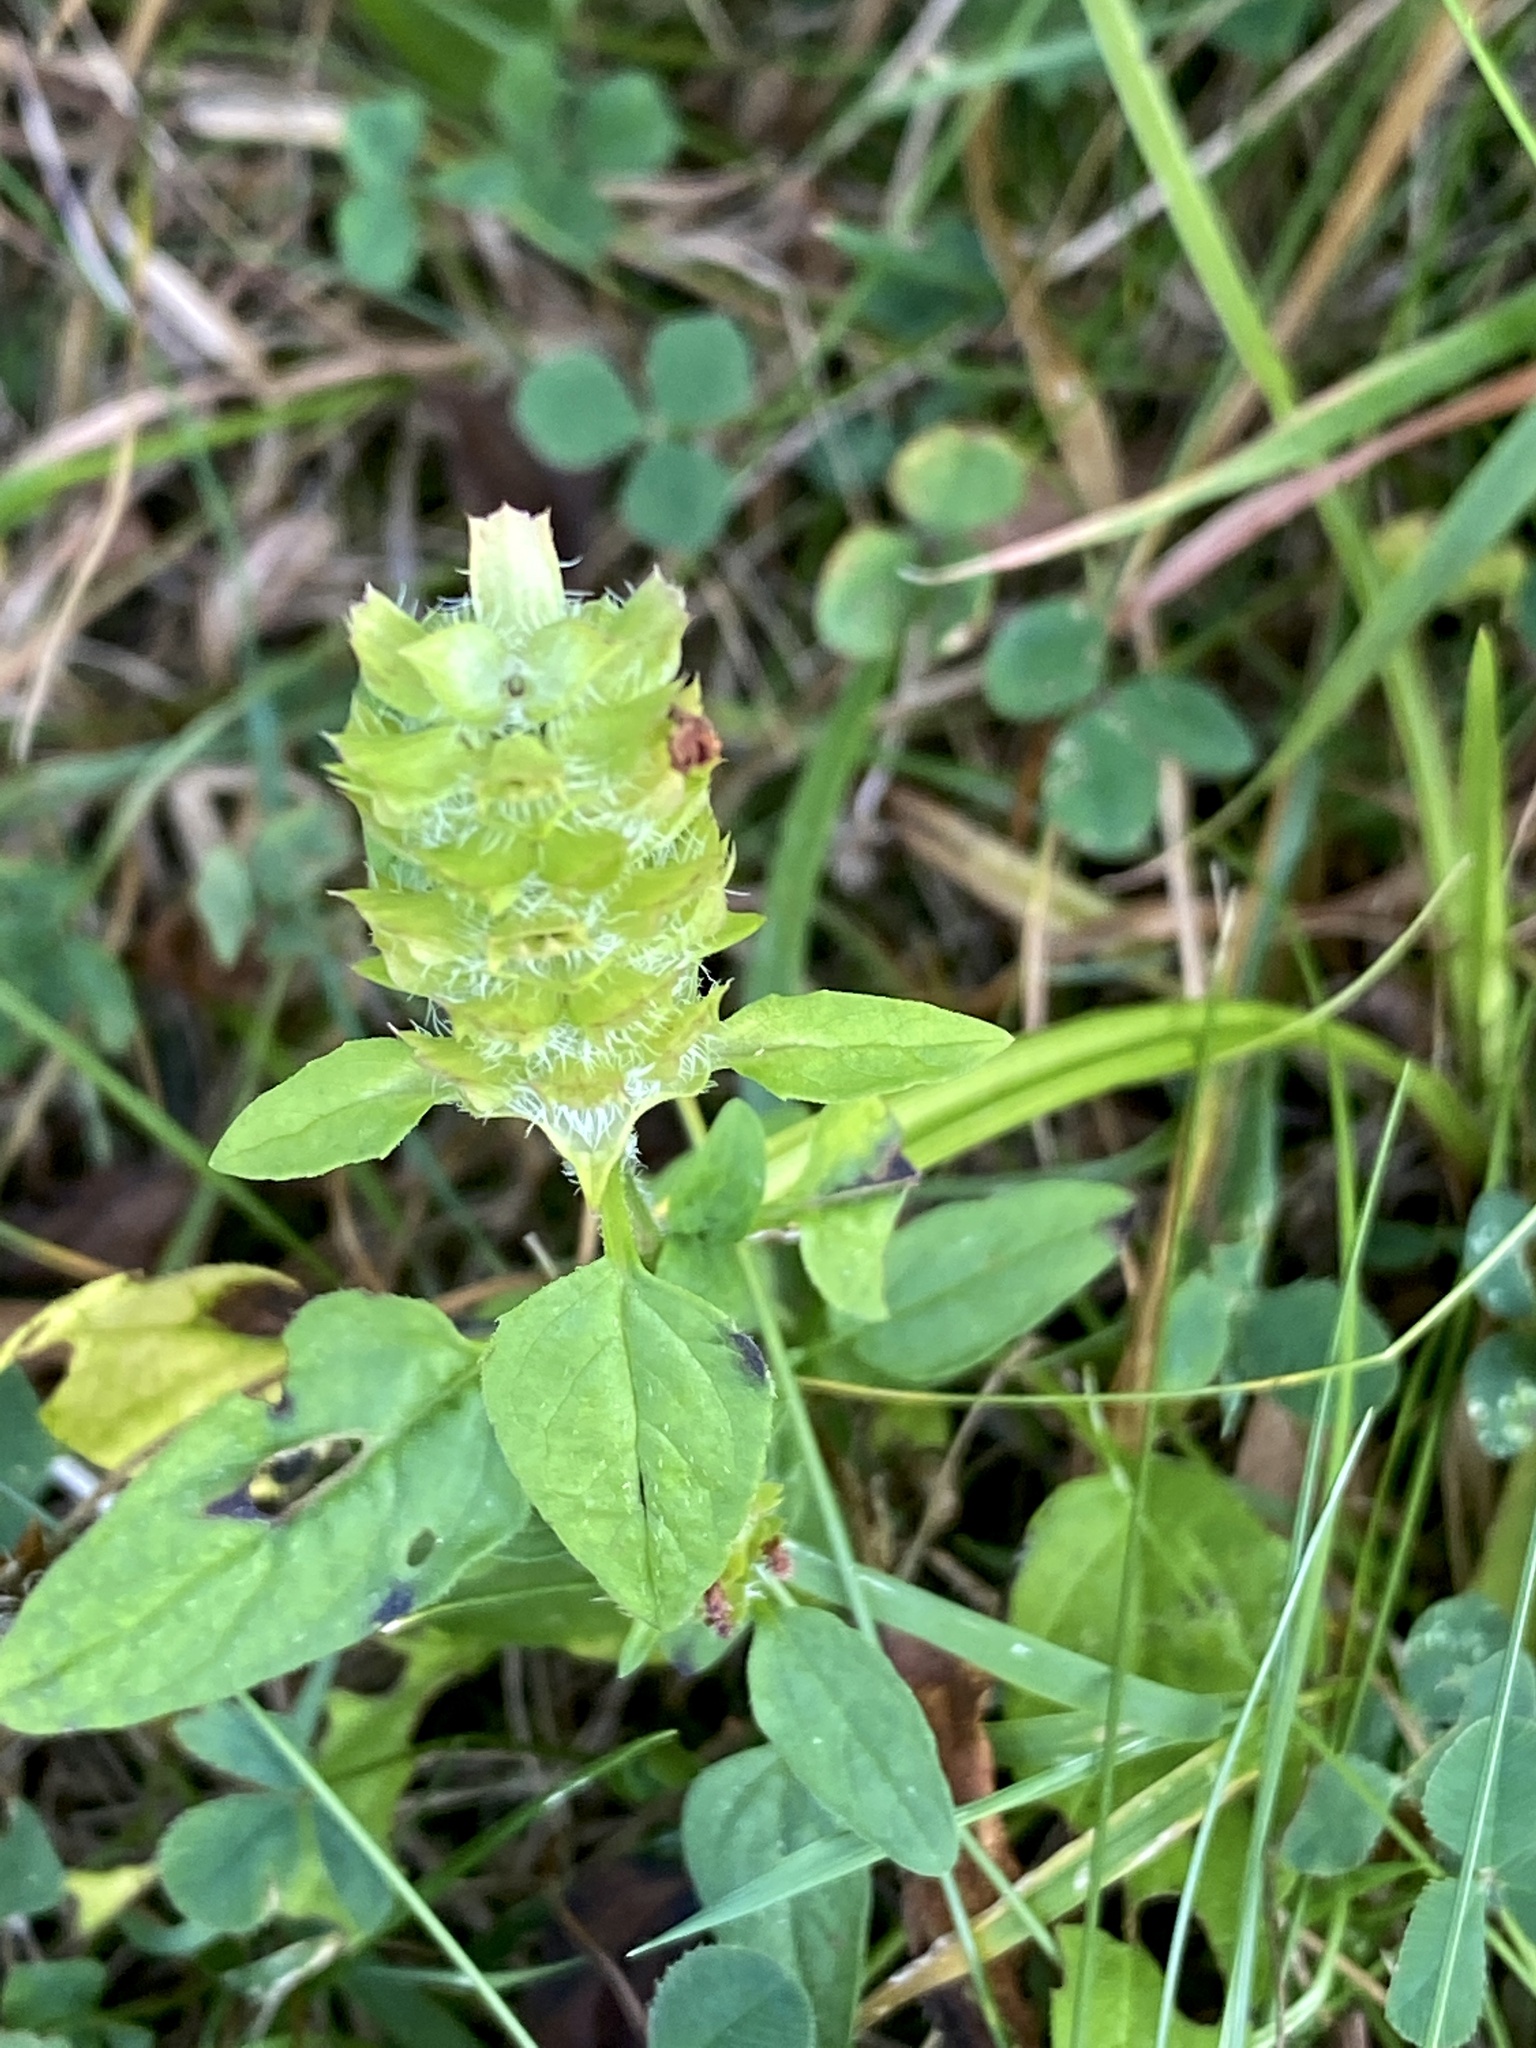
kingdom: Plantae
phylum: Tracheophyta
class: Magnoliopsida
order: Lamiales
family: Lamiaceae
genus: Prunella
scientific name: Prunella vulgaris
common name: Heal-all
